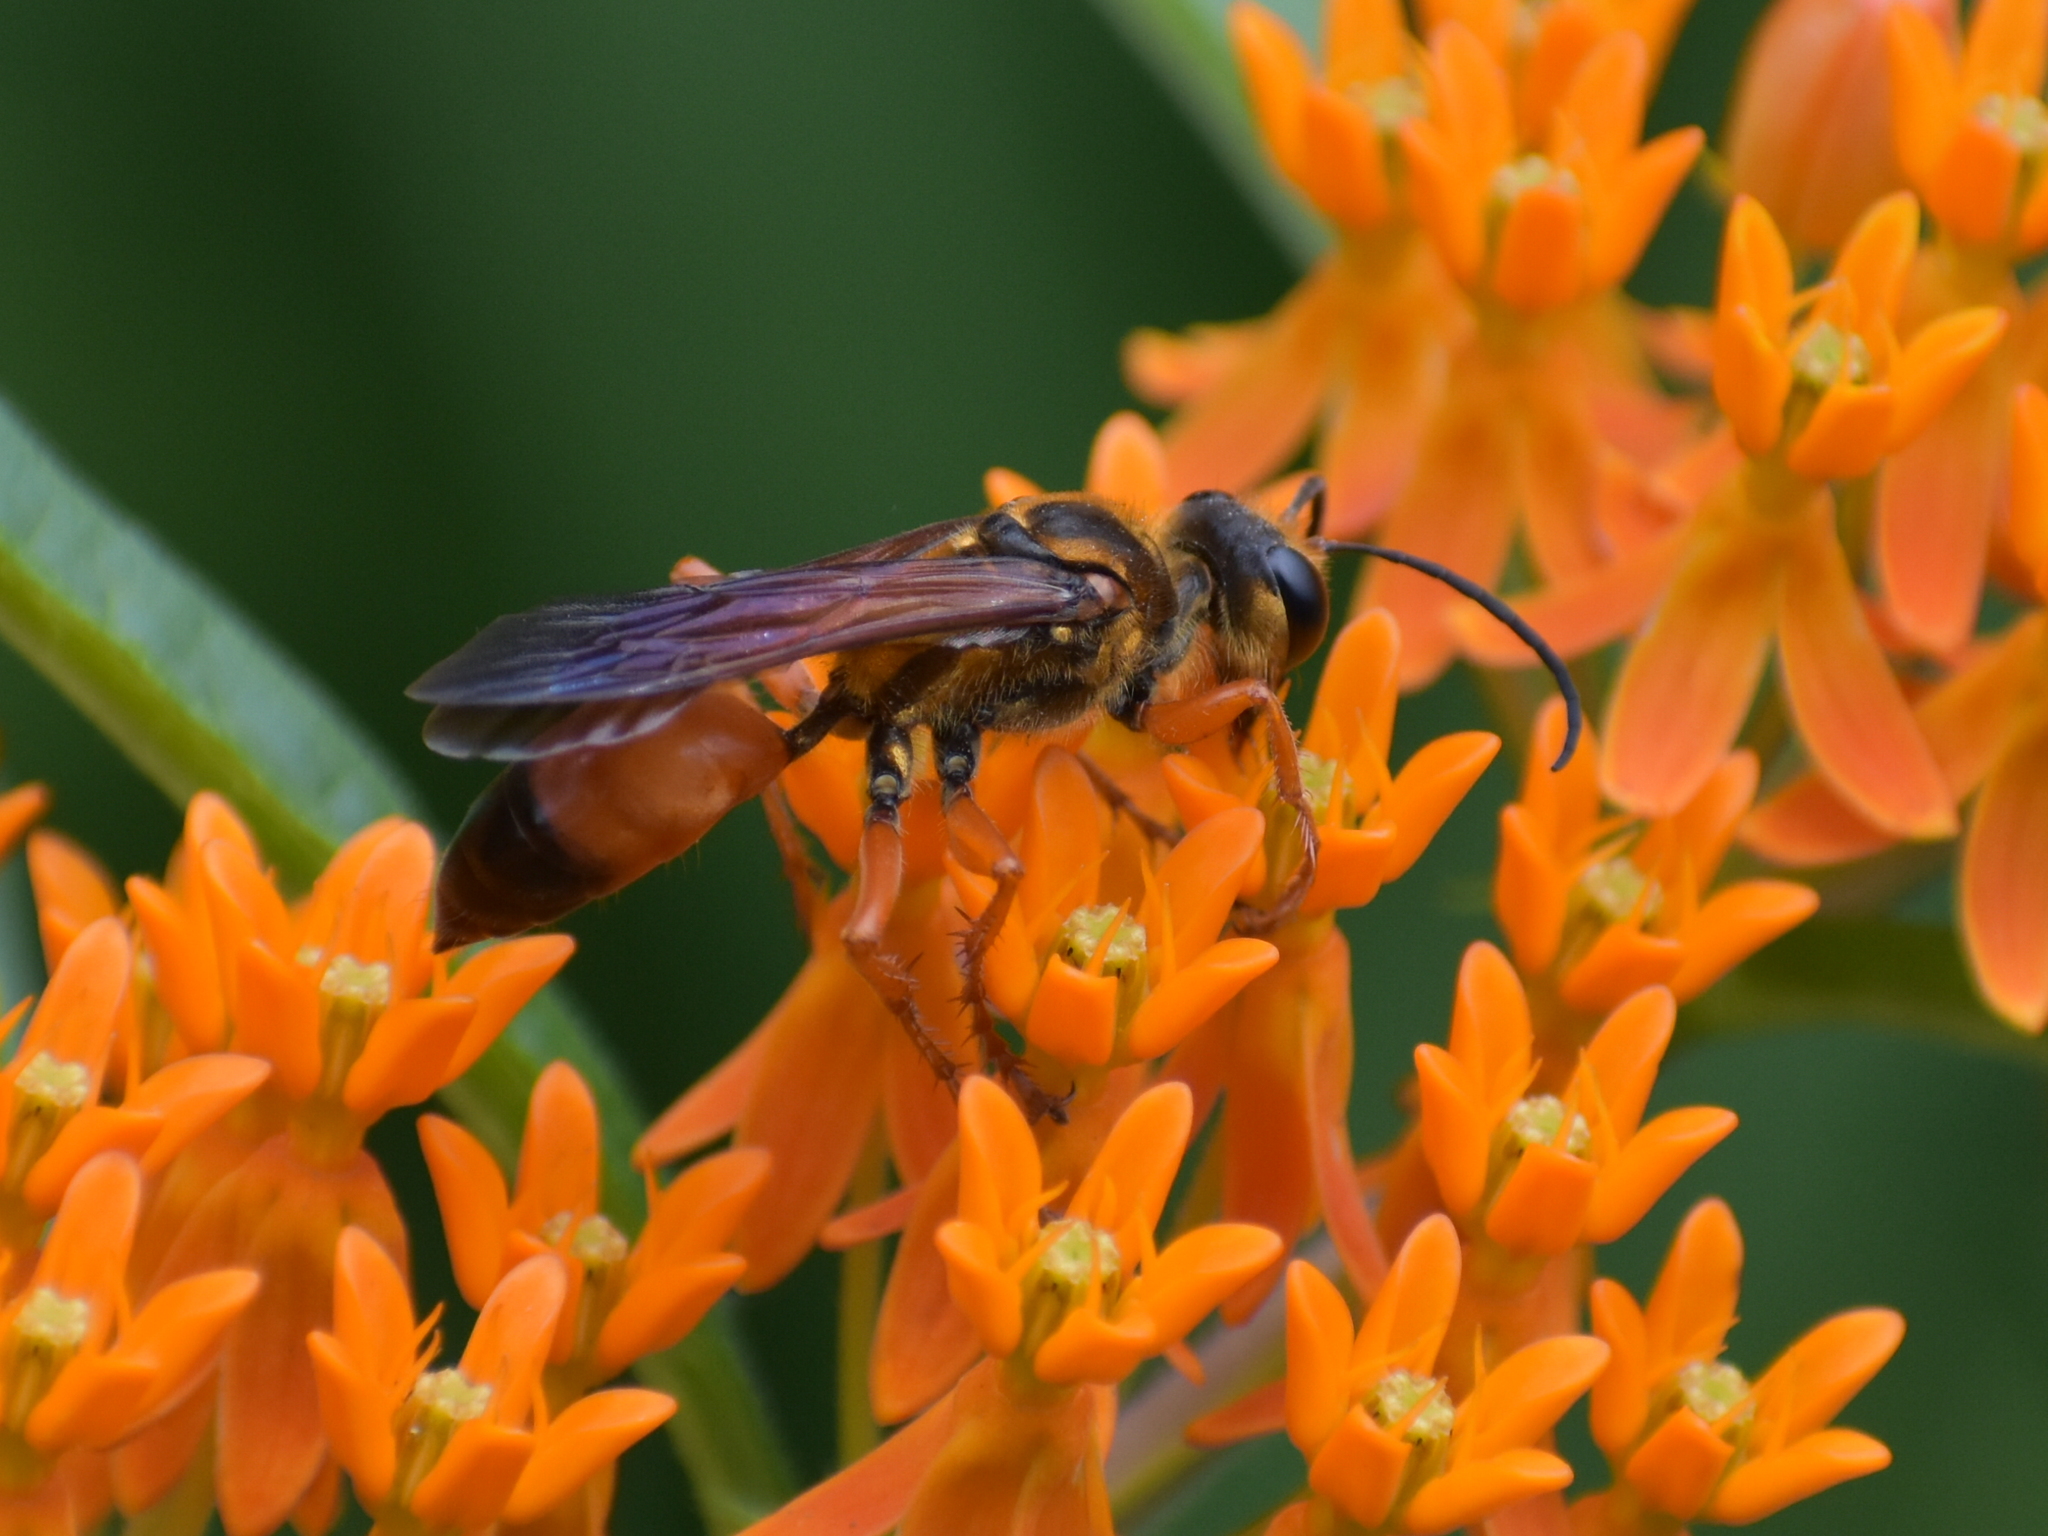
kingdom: Animalia
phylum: Arthropoda
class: Insecta
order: Hymenoptera
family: Sphecidae
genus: Sphex
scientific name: Sphex ichneumoneus
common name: Great golden digger wasp
